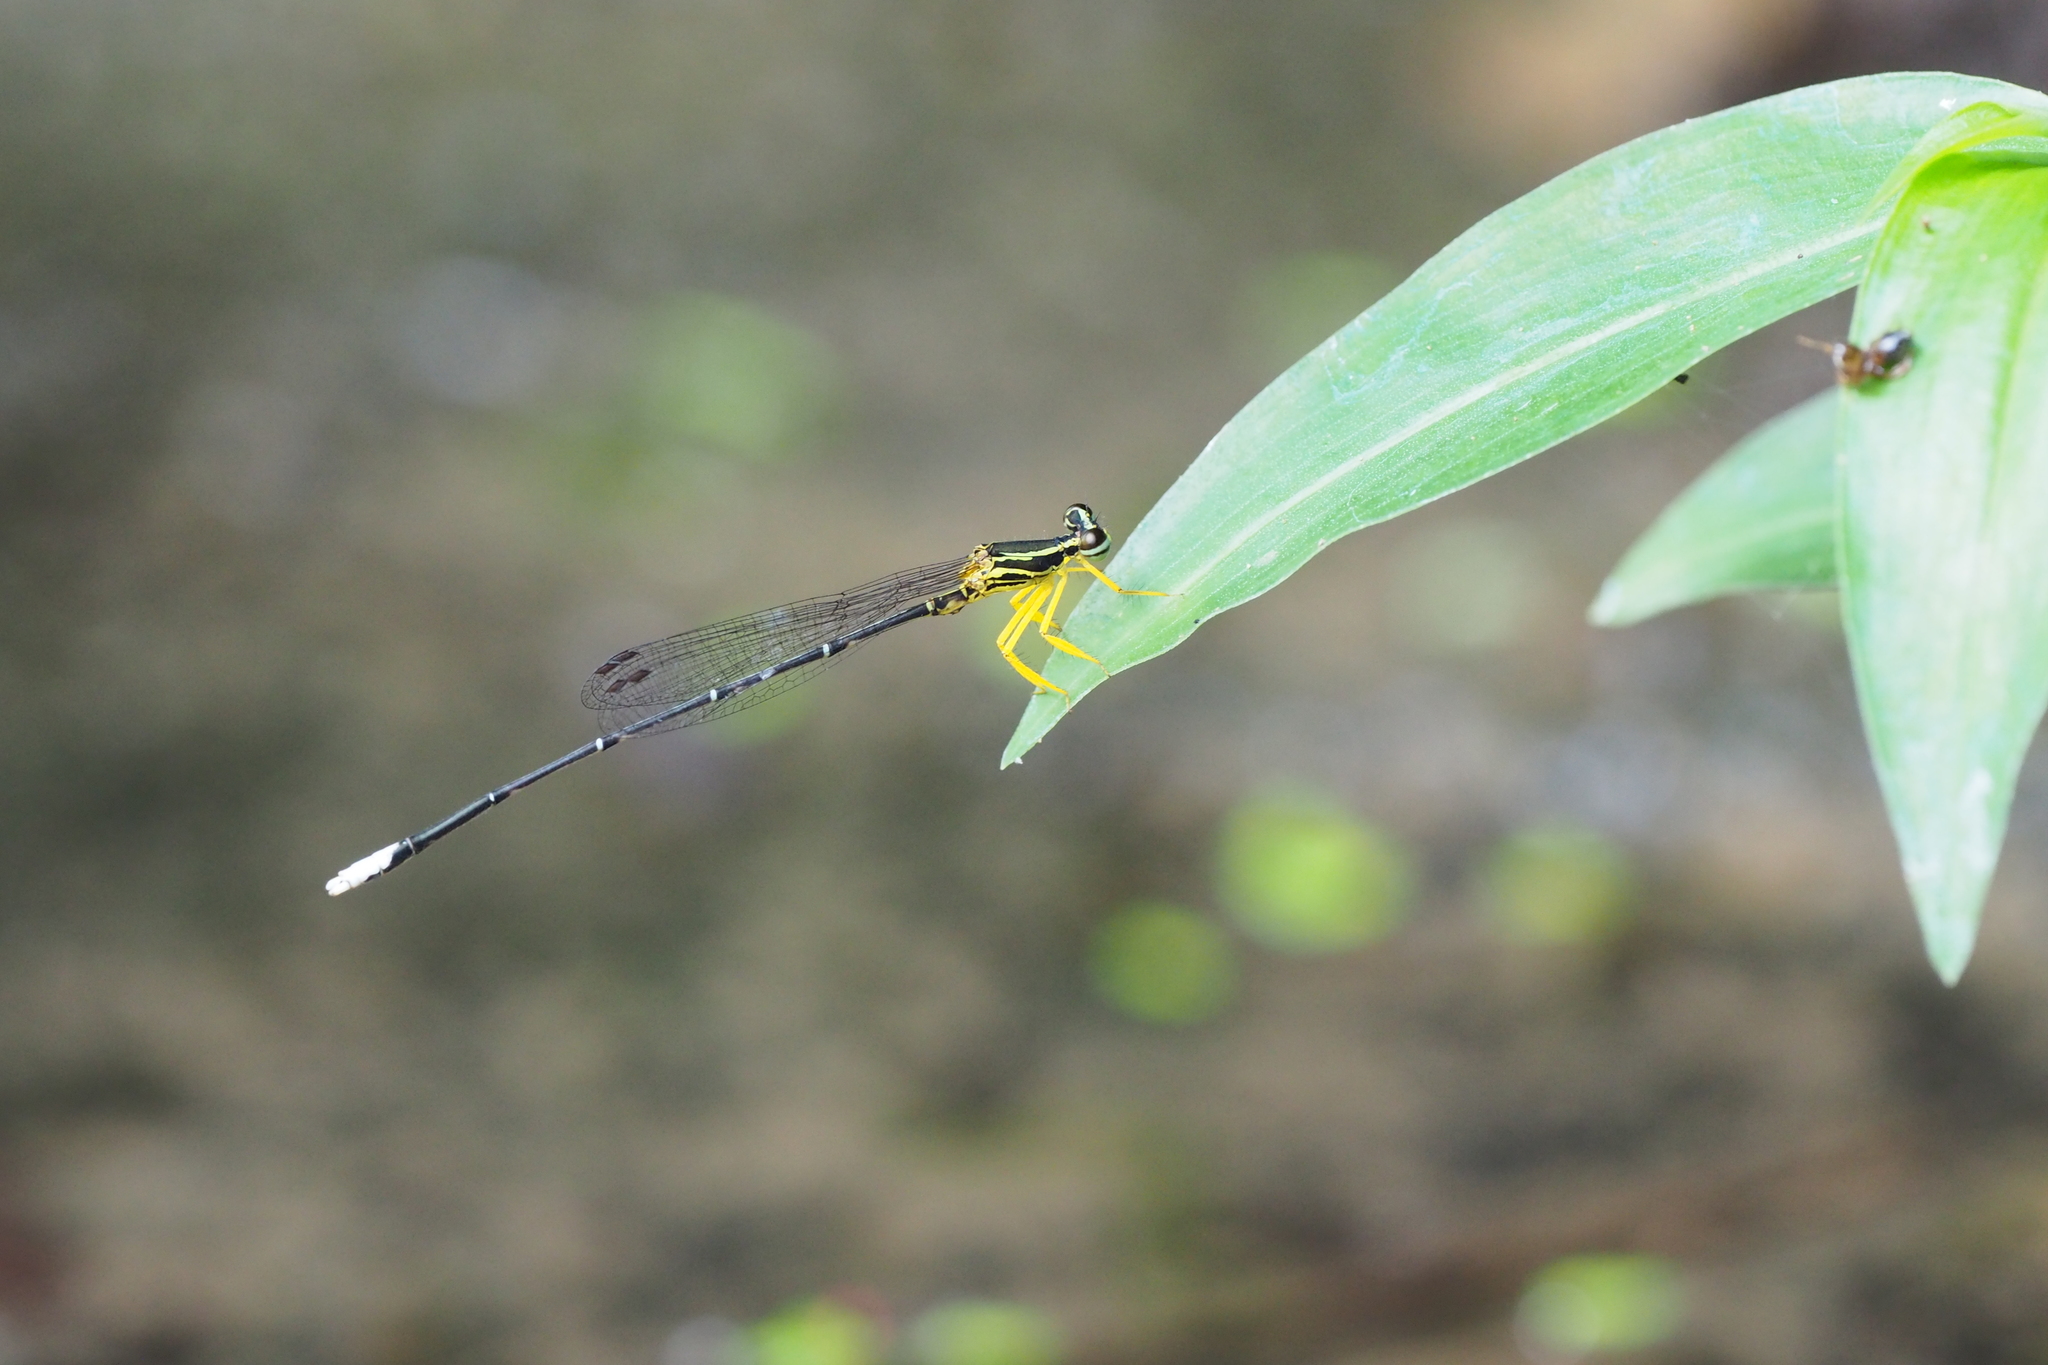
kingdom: Animalia
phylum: Arthropoda
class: Insecta
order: Odonata
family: Platycnemididae
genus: Copera
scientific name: Copera marginipes
